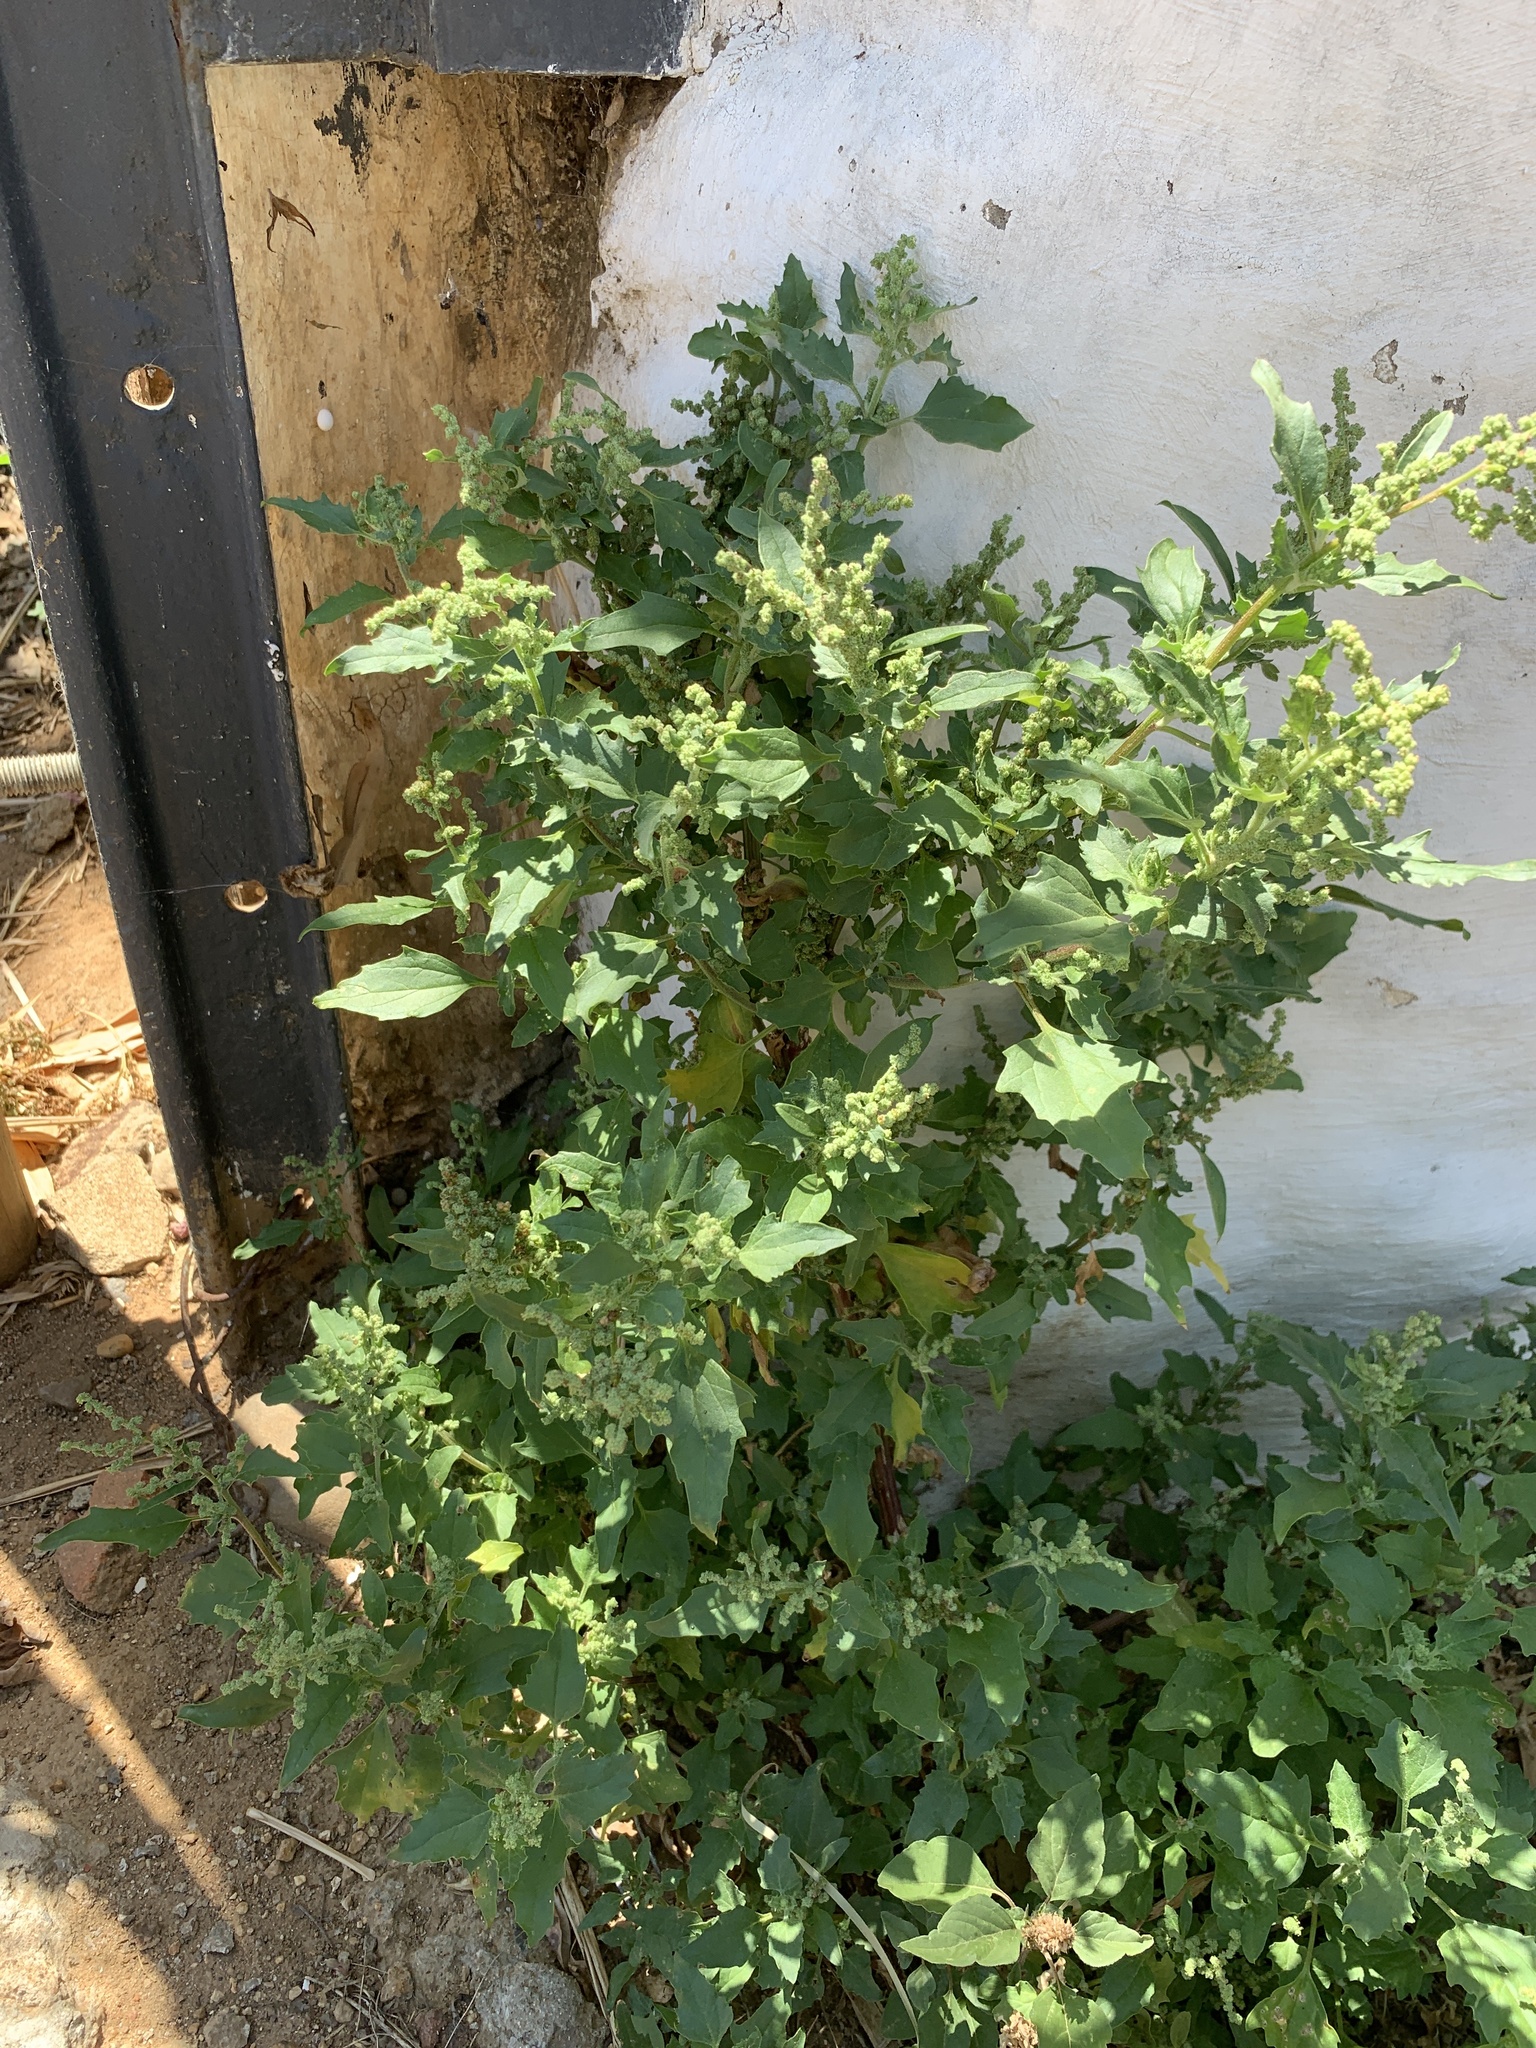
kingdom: Plantae
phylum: Tracheophyta
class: Magnoliopsida
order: Caryophyllales
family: Amaranthaceae
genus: Chenopodiastrum
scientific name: Chenopodiastrum murale
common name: Sowbane
